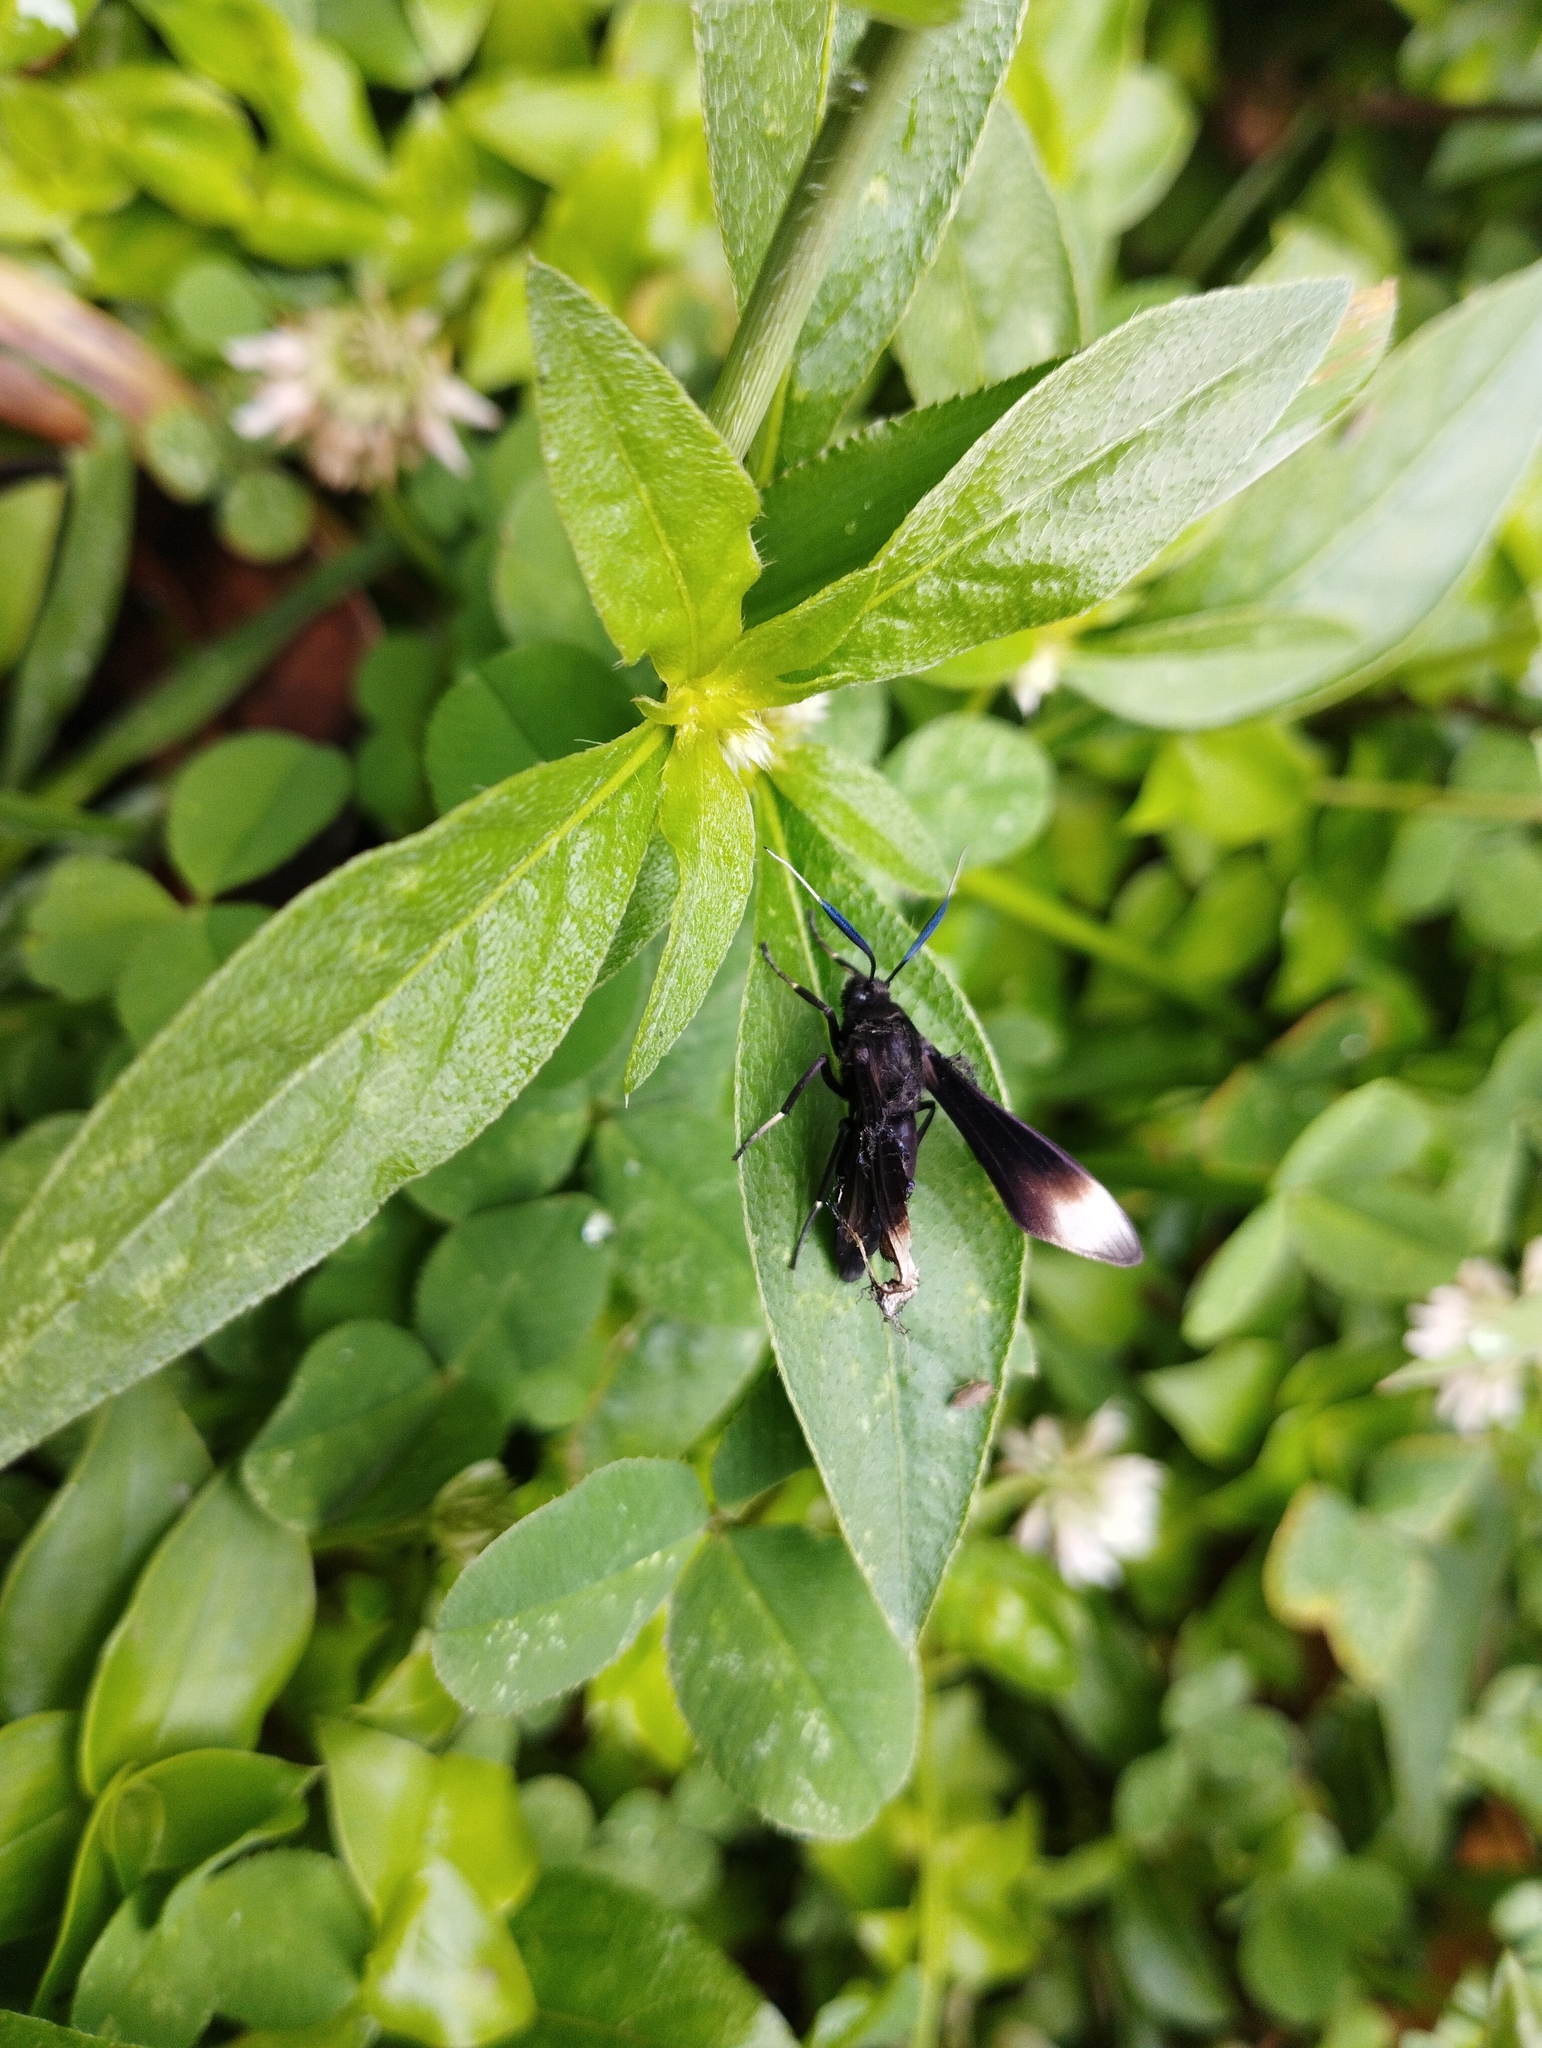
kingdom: Animalia
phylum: Arthropoda
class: Insecta
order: Lepidoptera
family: Erebidae
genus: Pompiliodes
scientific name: Pompiliodes albomarginata
